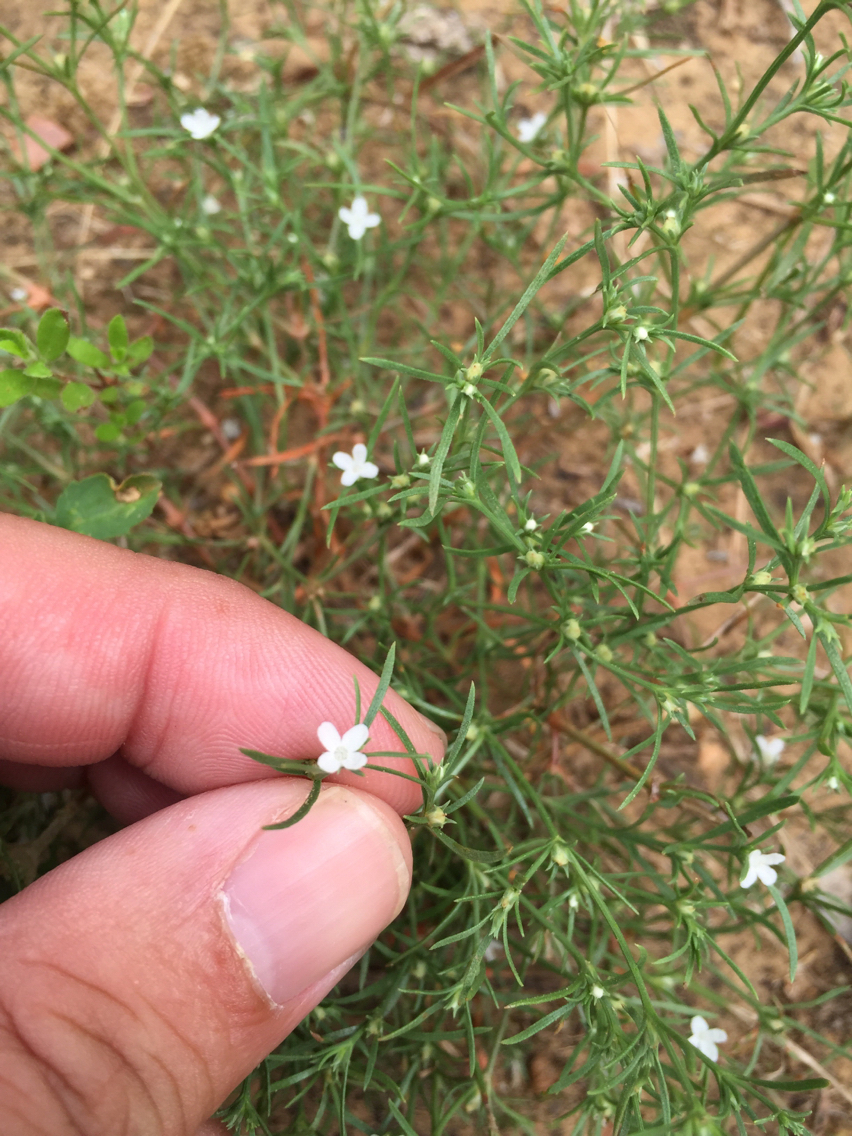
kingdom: Plantae
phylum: Tracheophyta
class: Magnoliopsida
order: Lamiales
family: Tetrachondraceae
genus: Polypremum
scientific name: Polypremum procumbens
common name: Juniper-leaf
